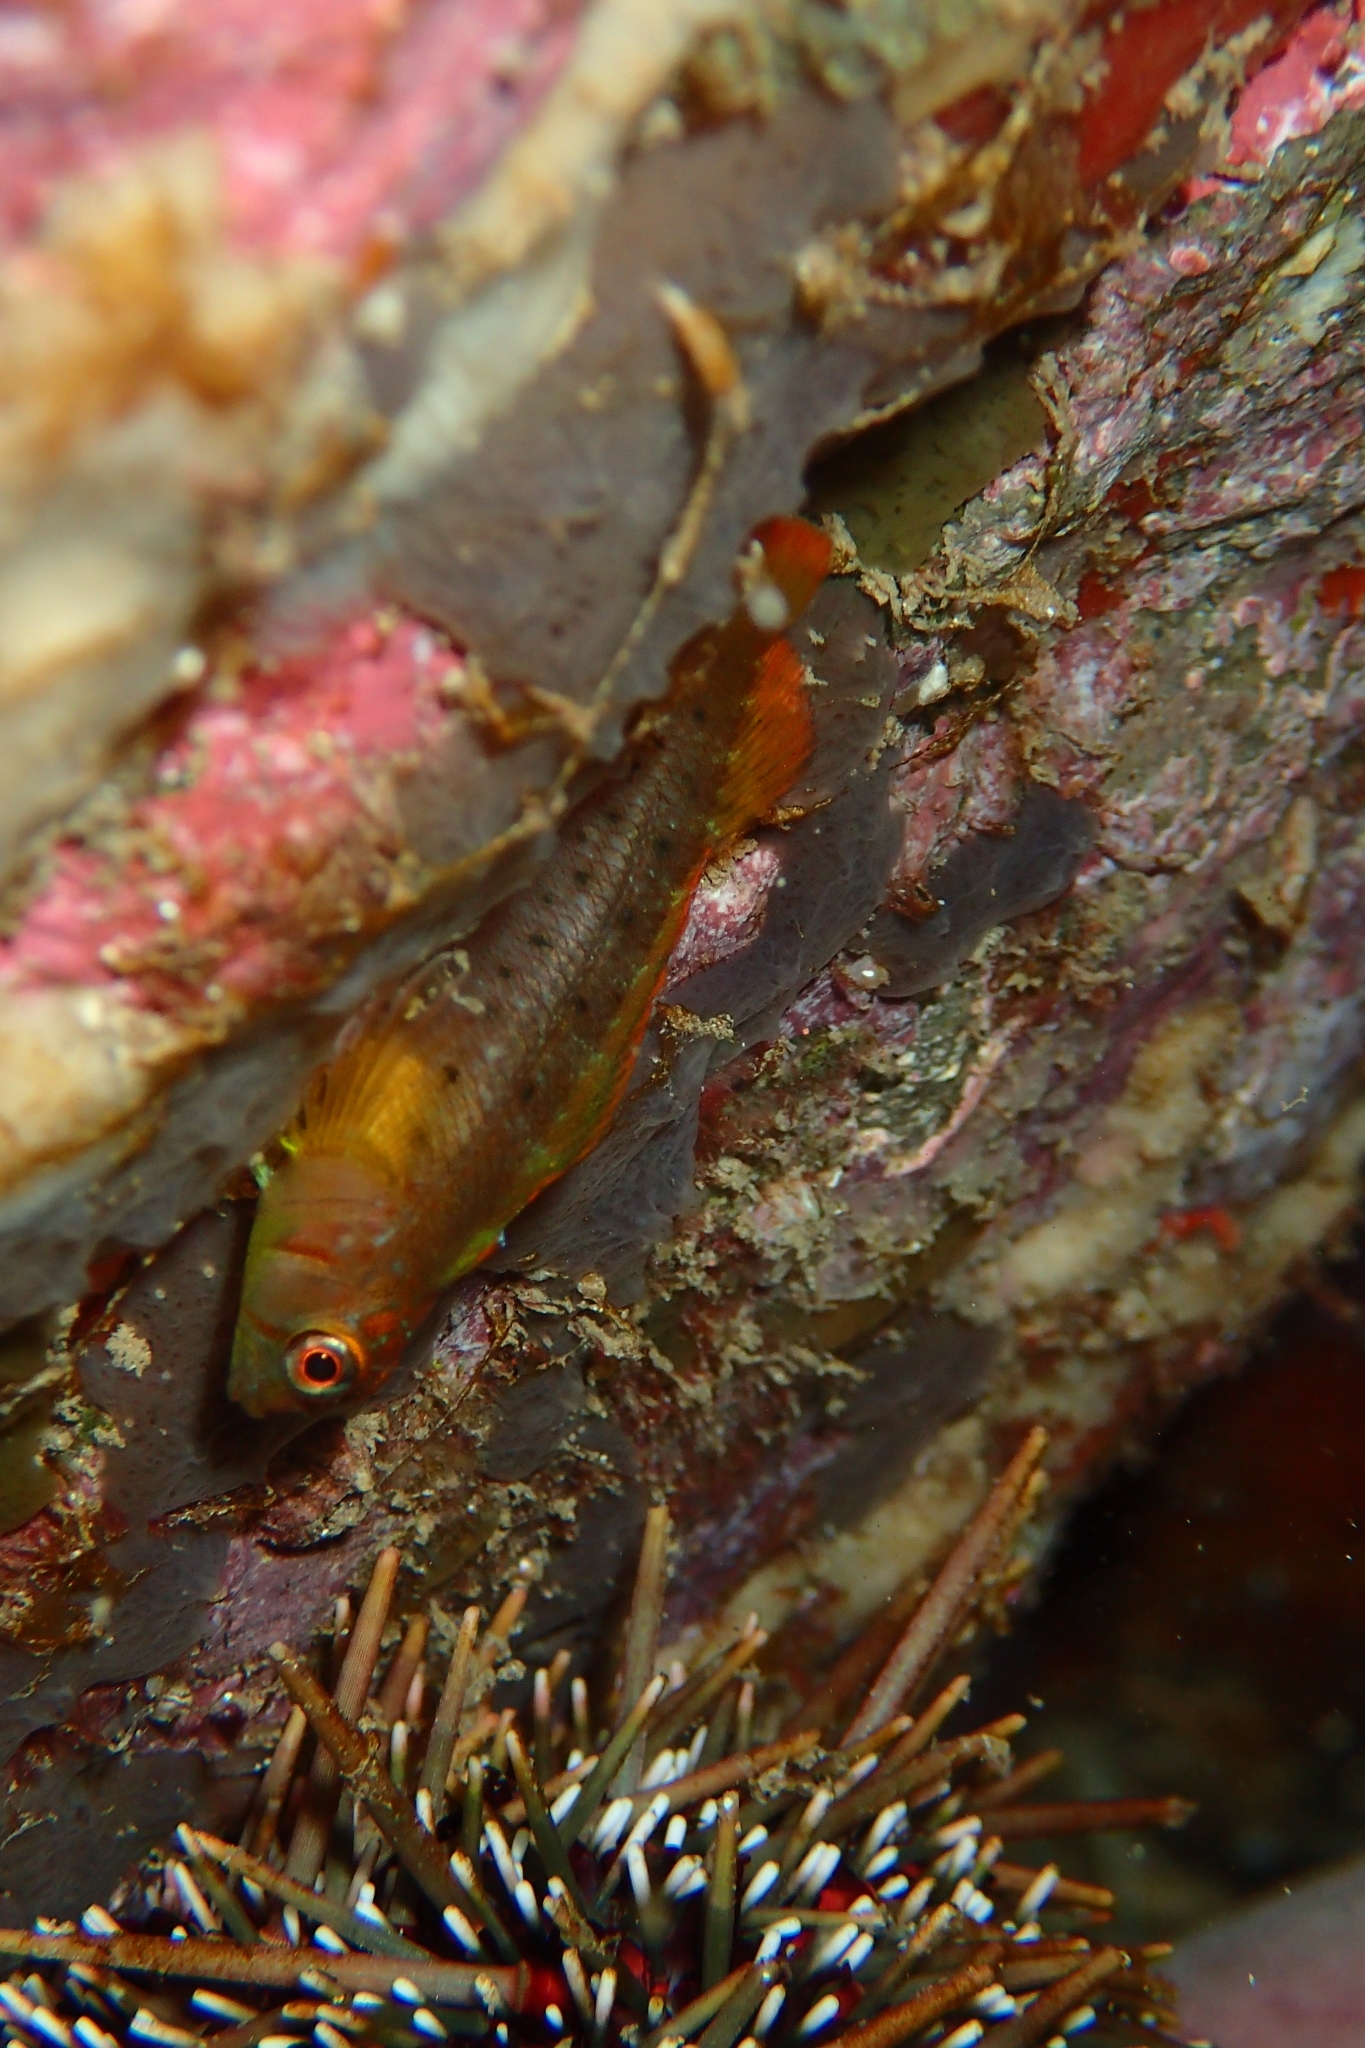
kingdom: Animalia
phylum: Chordata
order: Perciformes
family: Tripterygiidae
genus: Notoclinops
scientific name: Notoclinops yaldwyni
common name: Yaldwyn's triplefin
